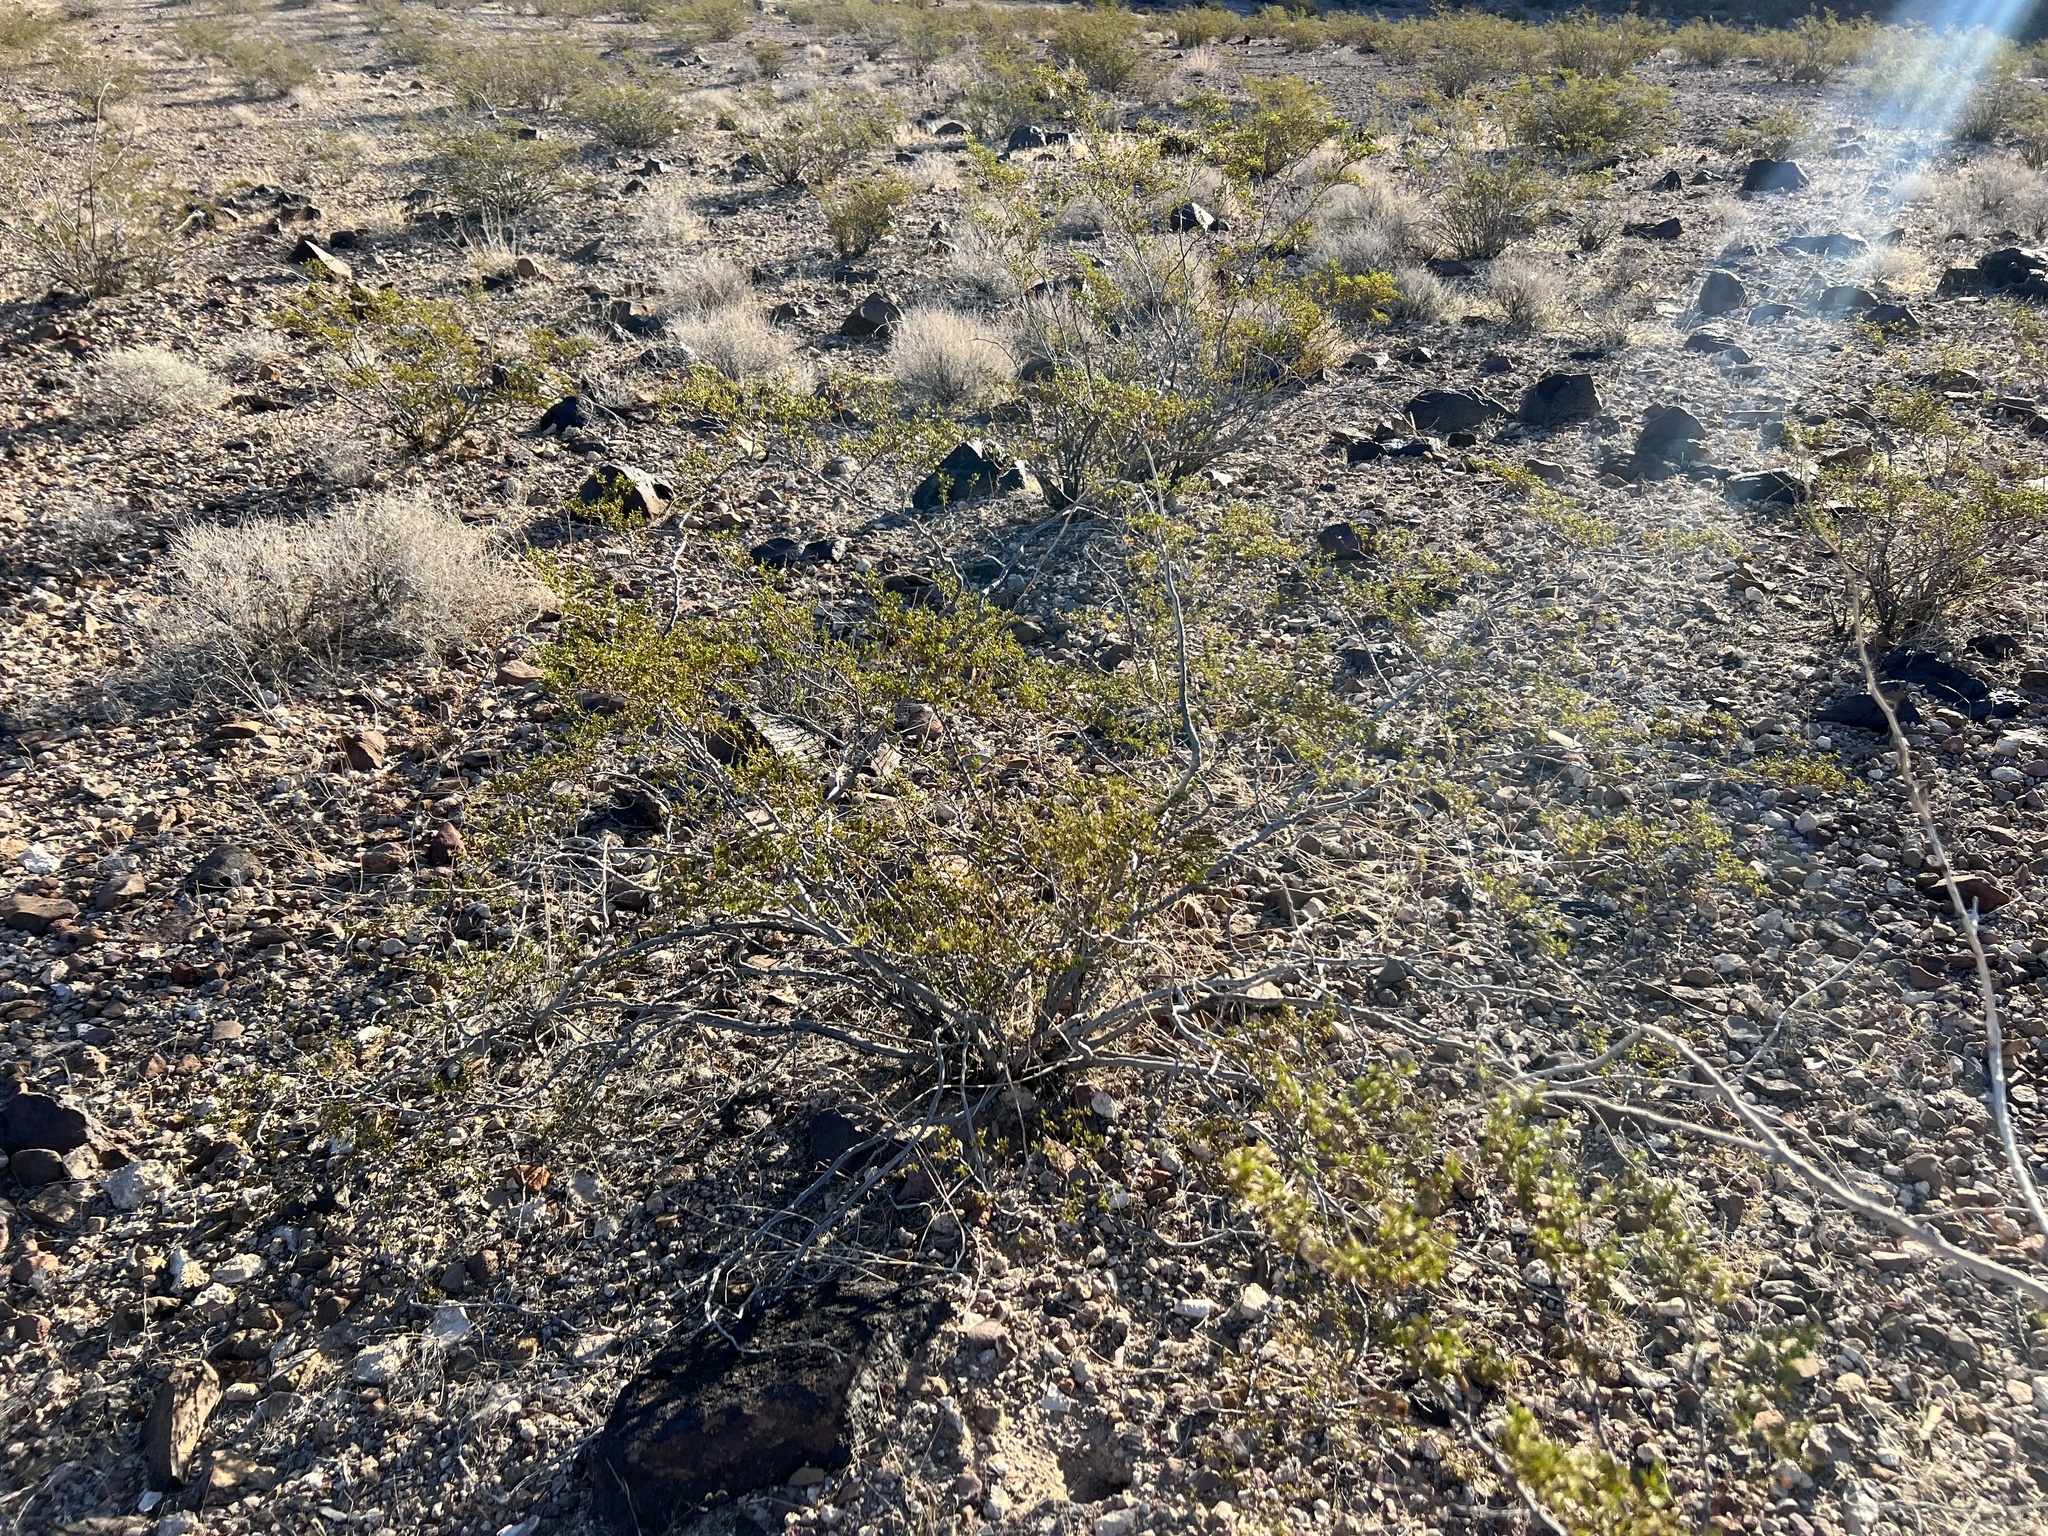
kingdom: Plantae
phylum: Tracheophyta
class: Magnoliopsida
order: Zygophyllales
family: Zygophyllaceae
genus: Larrea
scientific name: Larrea tridentata
